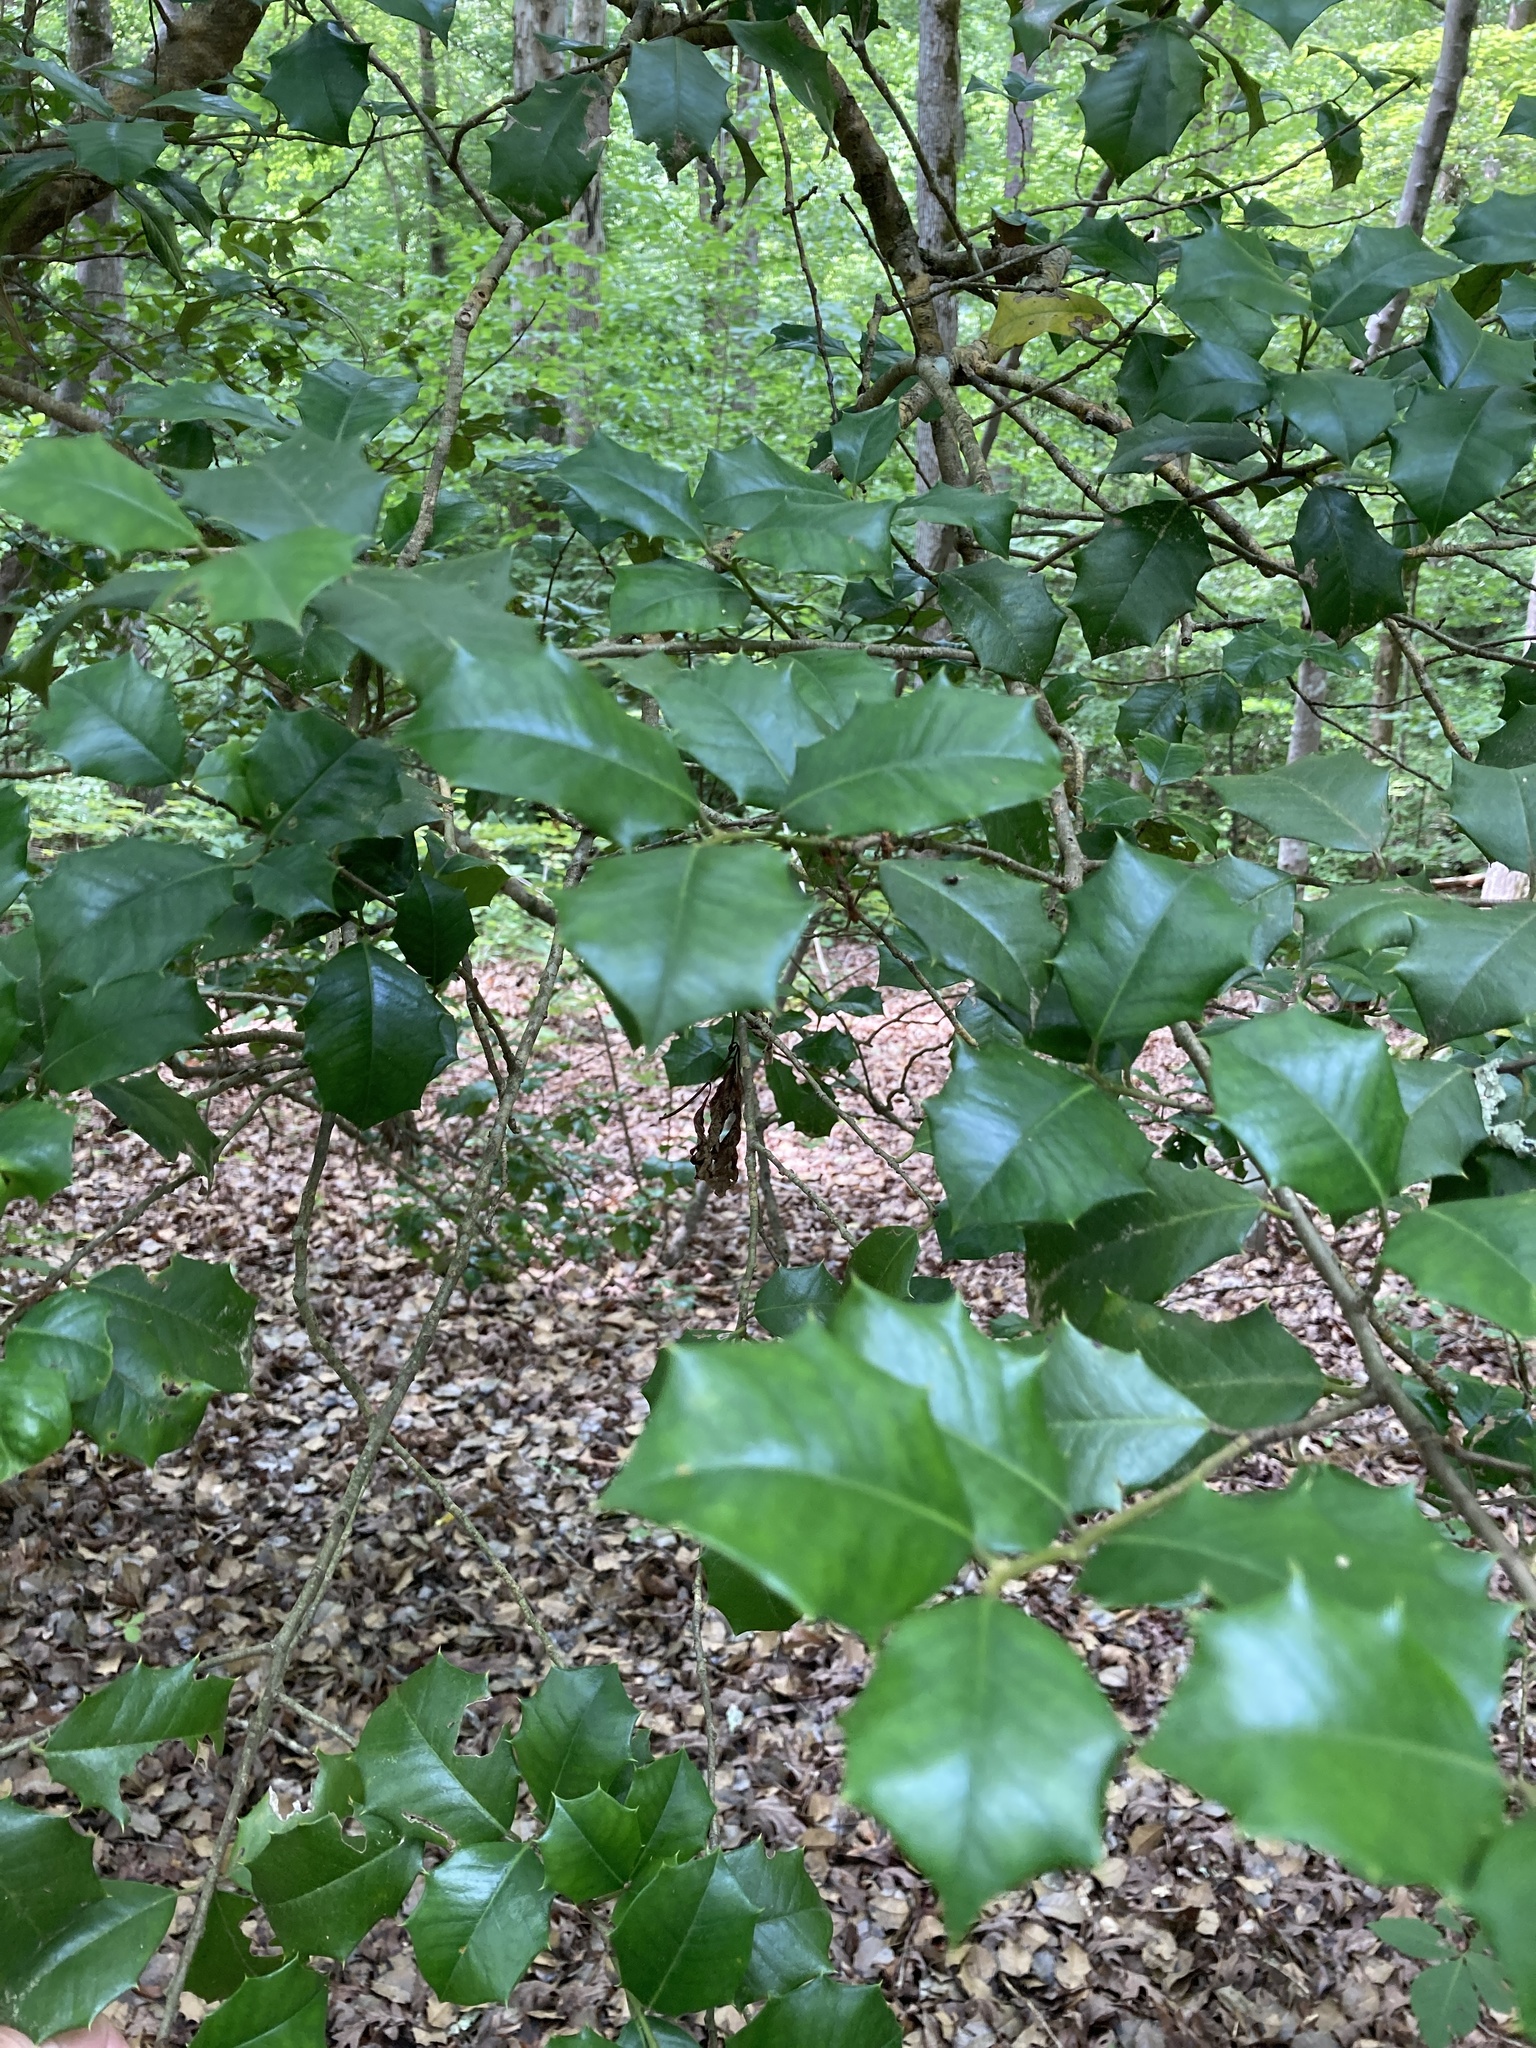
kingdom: Plantae
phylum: Tracheophyta
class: Magnoliopsida
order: Aquifoliales
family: Aquifoliaceae
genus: Ilex
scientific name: Ilex opaca
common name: American holly
